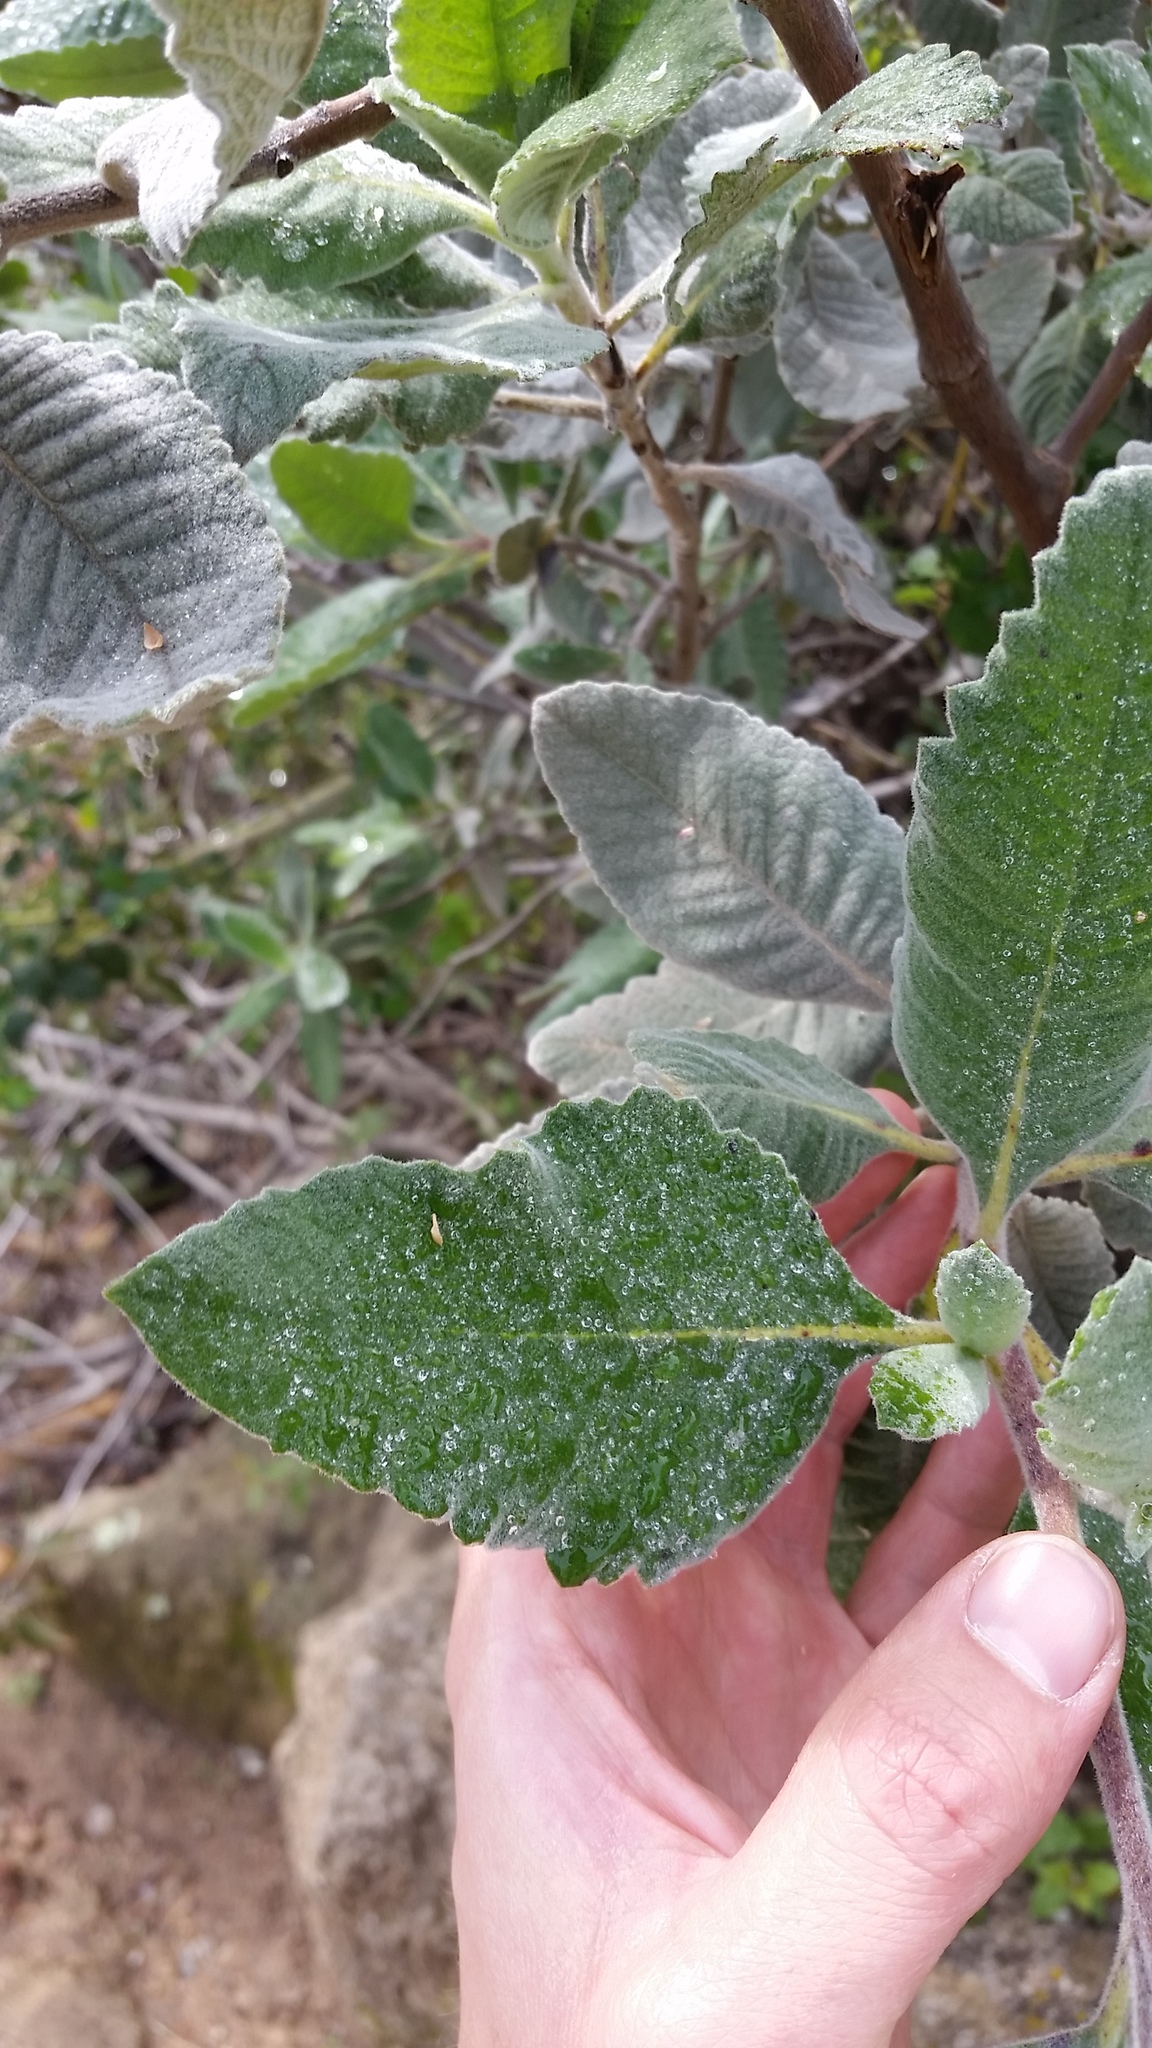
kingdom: Plantae
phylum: Tracheophyta
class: Magnoliopsida
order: Boraginales
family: Namaceae
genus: Eriodictyon
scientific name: Eriodictyon crassifolium
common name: Thick-leaf yerba-santa
